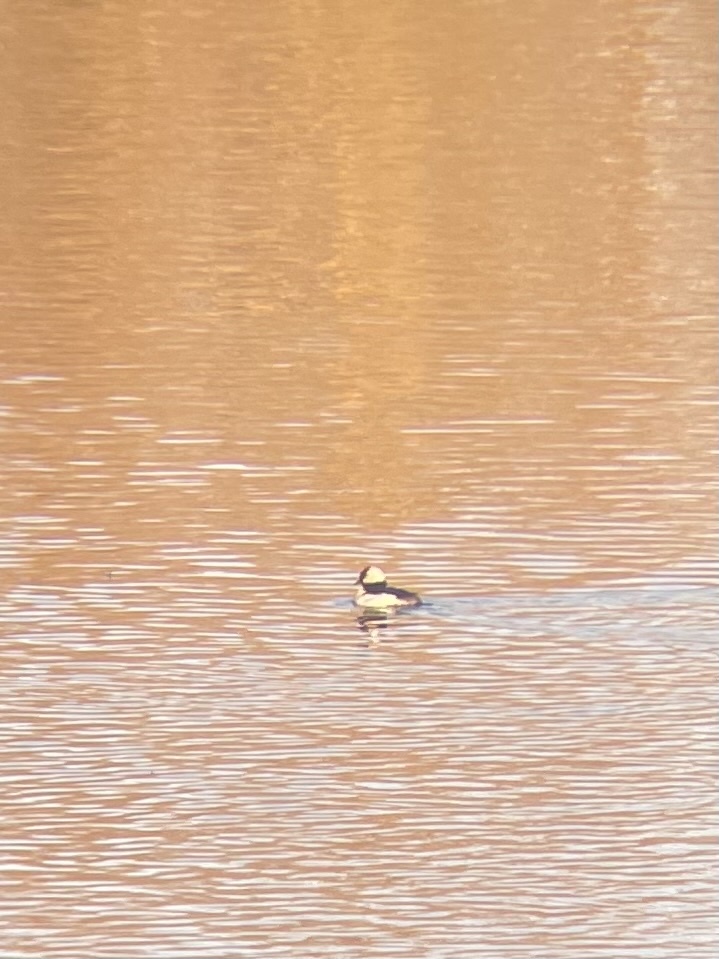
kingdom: Animalia
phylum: Chordata
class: Aves
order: Anseriformes
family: Anatidae
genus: Bucephala
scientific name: Bucephala albeola
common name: Bufflehead
